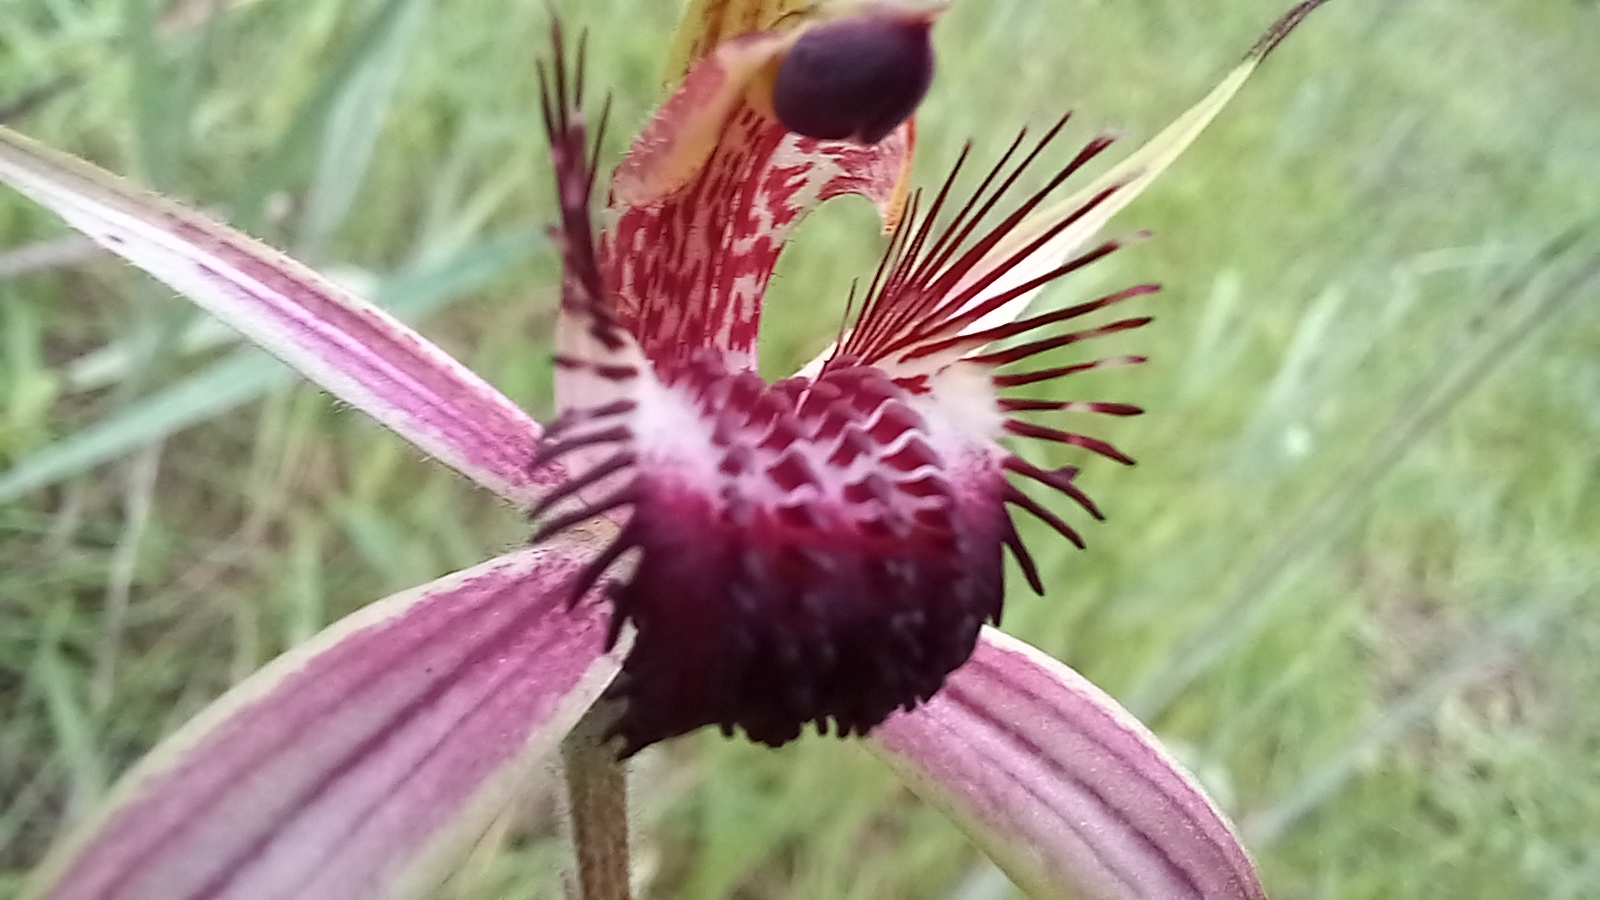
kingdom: Plantae
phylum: Tracheophyta
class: Liliopsida
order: Asparagales
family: Orchidaceae
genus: Caladenia
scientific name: Caladenia arenicola
